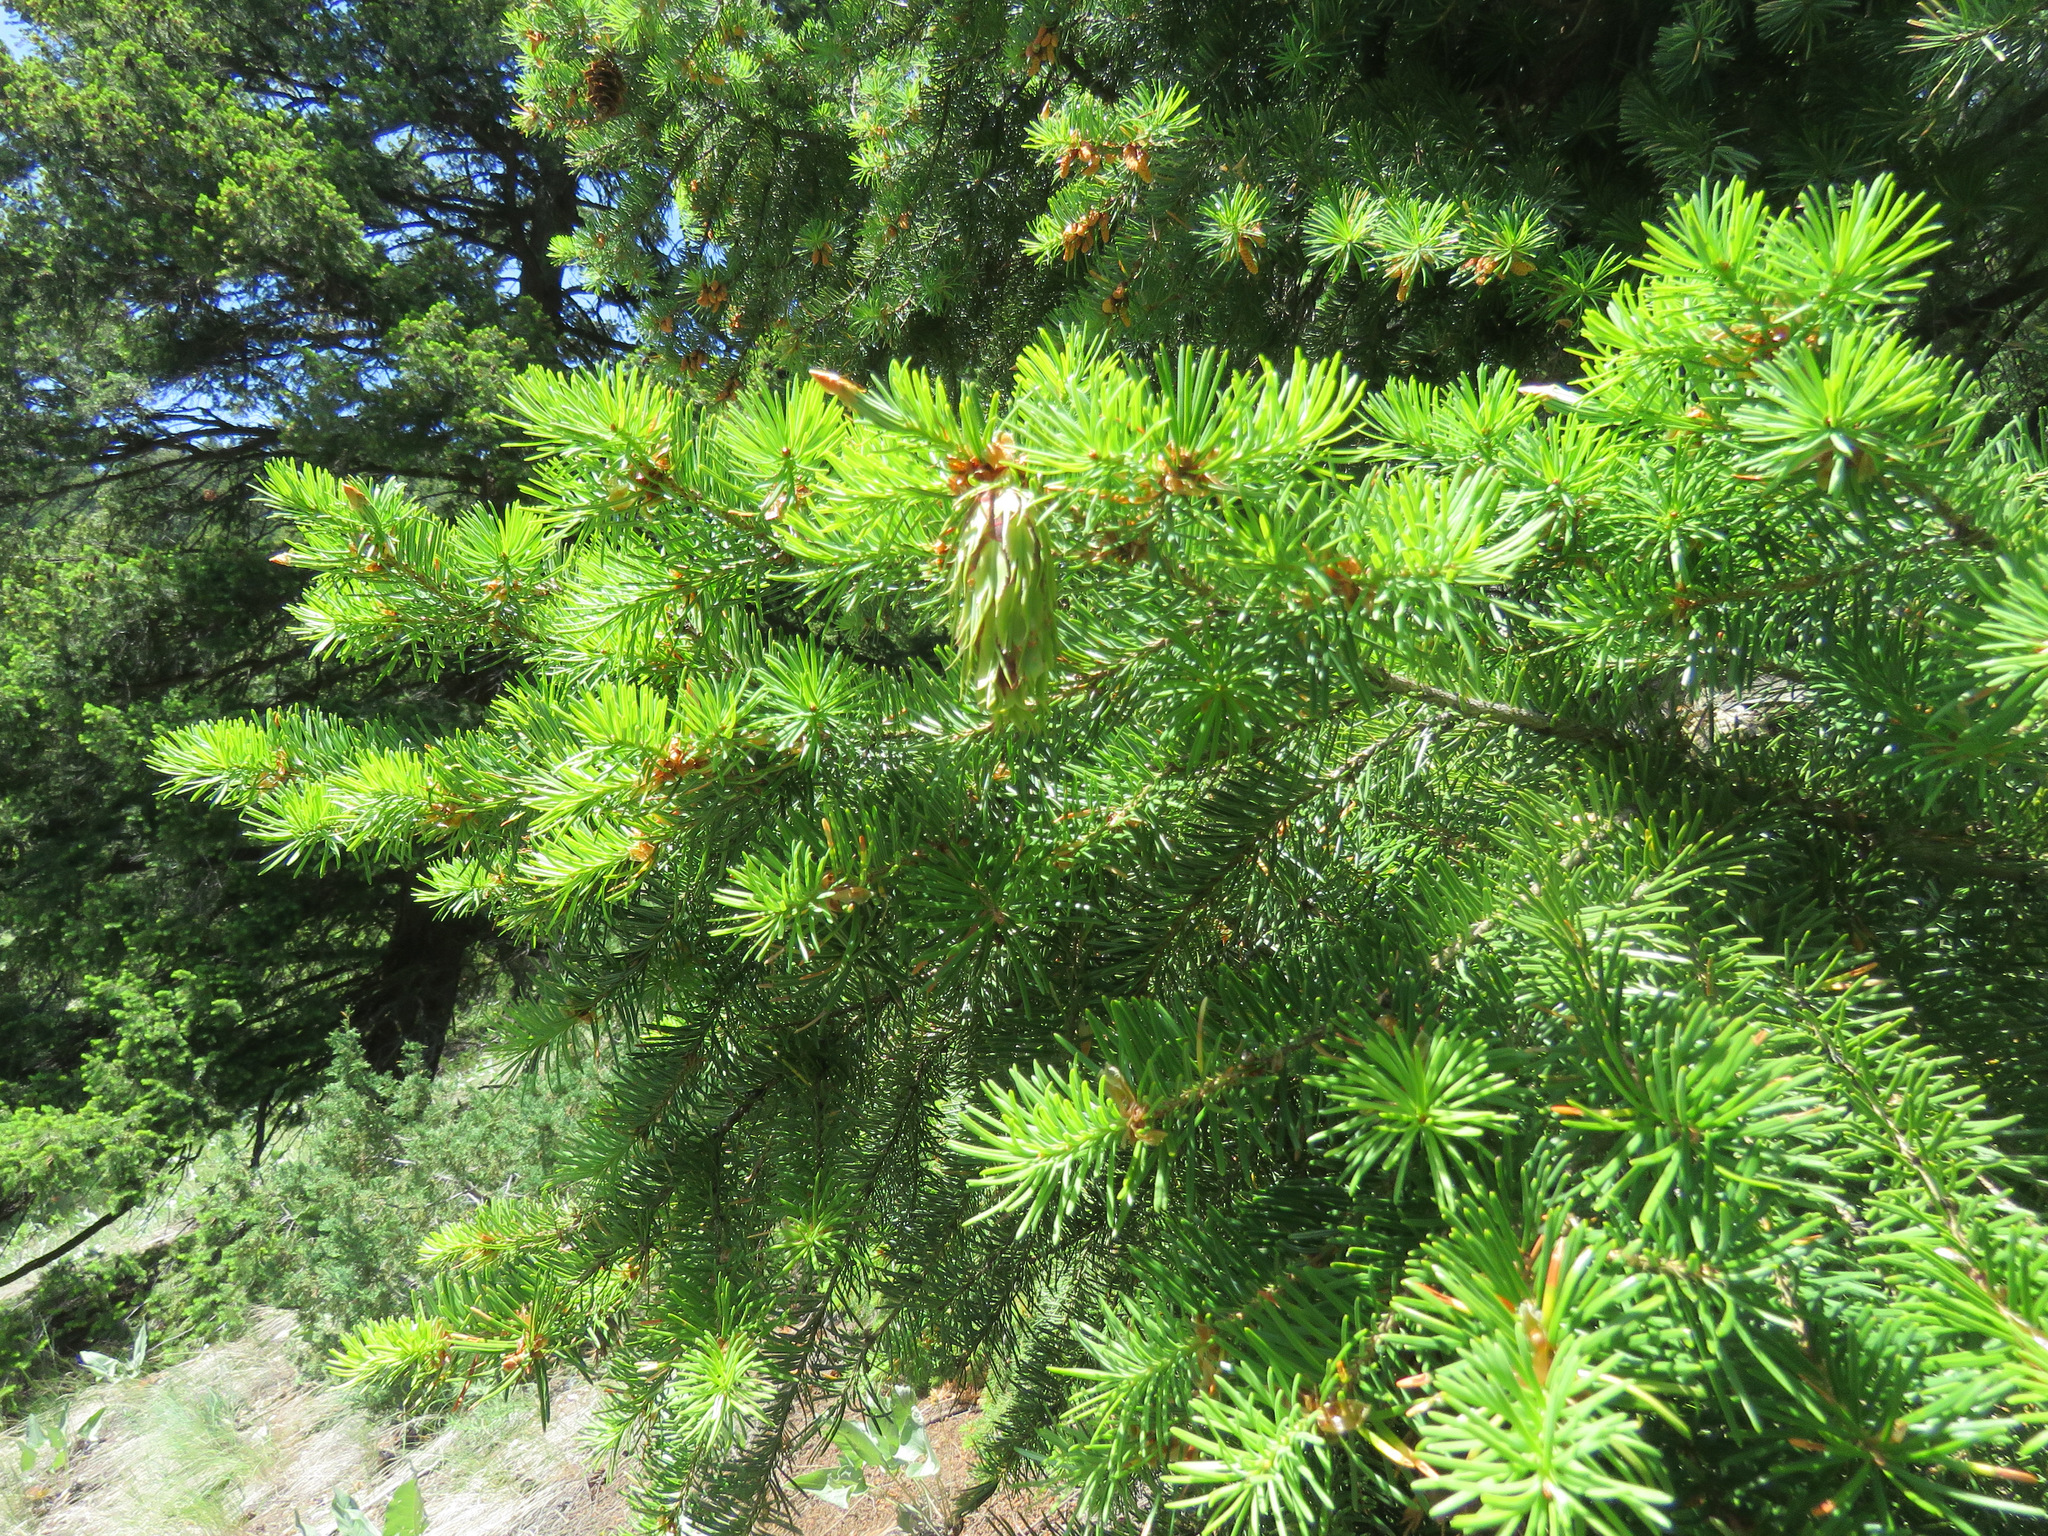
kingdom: Plantae
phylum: Tracheophyta
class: Pinopsida
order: Pinales
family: Pinaceae
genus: Pseudotsuga
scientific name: Pseudotsuga menziesii
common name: Douglas fir
